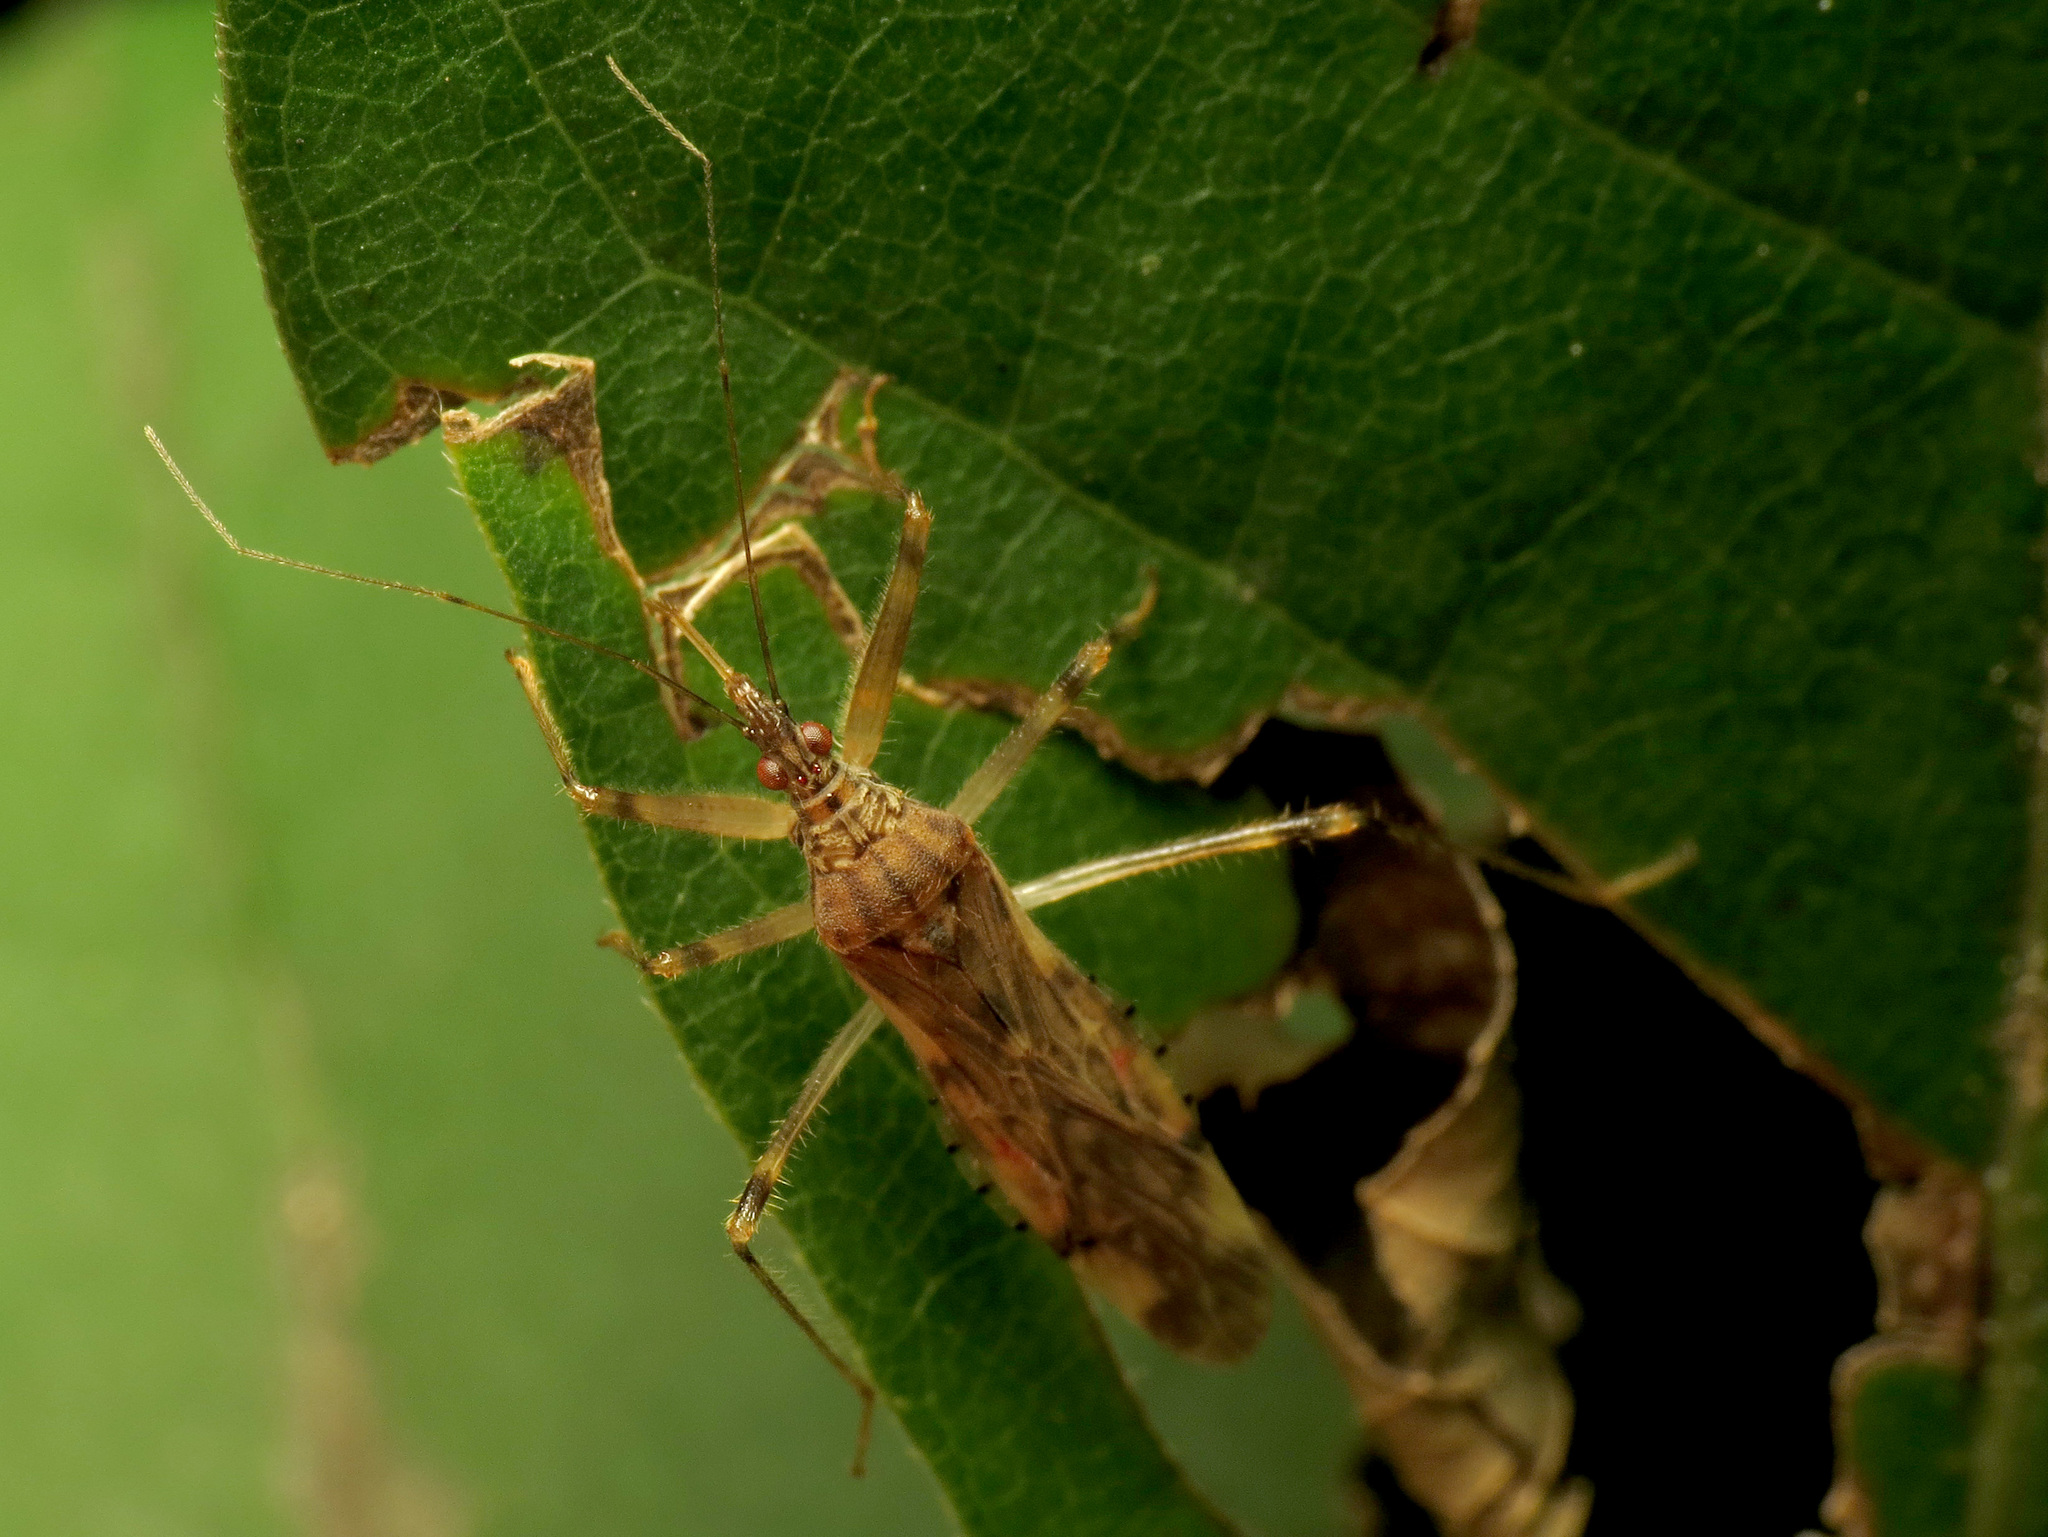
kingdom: Animalia
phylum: Arthropoda
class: Insecta
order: Hemiptera
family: Nabidae
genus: Lasiomerus
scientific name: Lasiomerus annulatus
